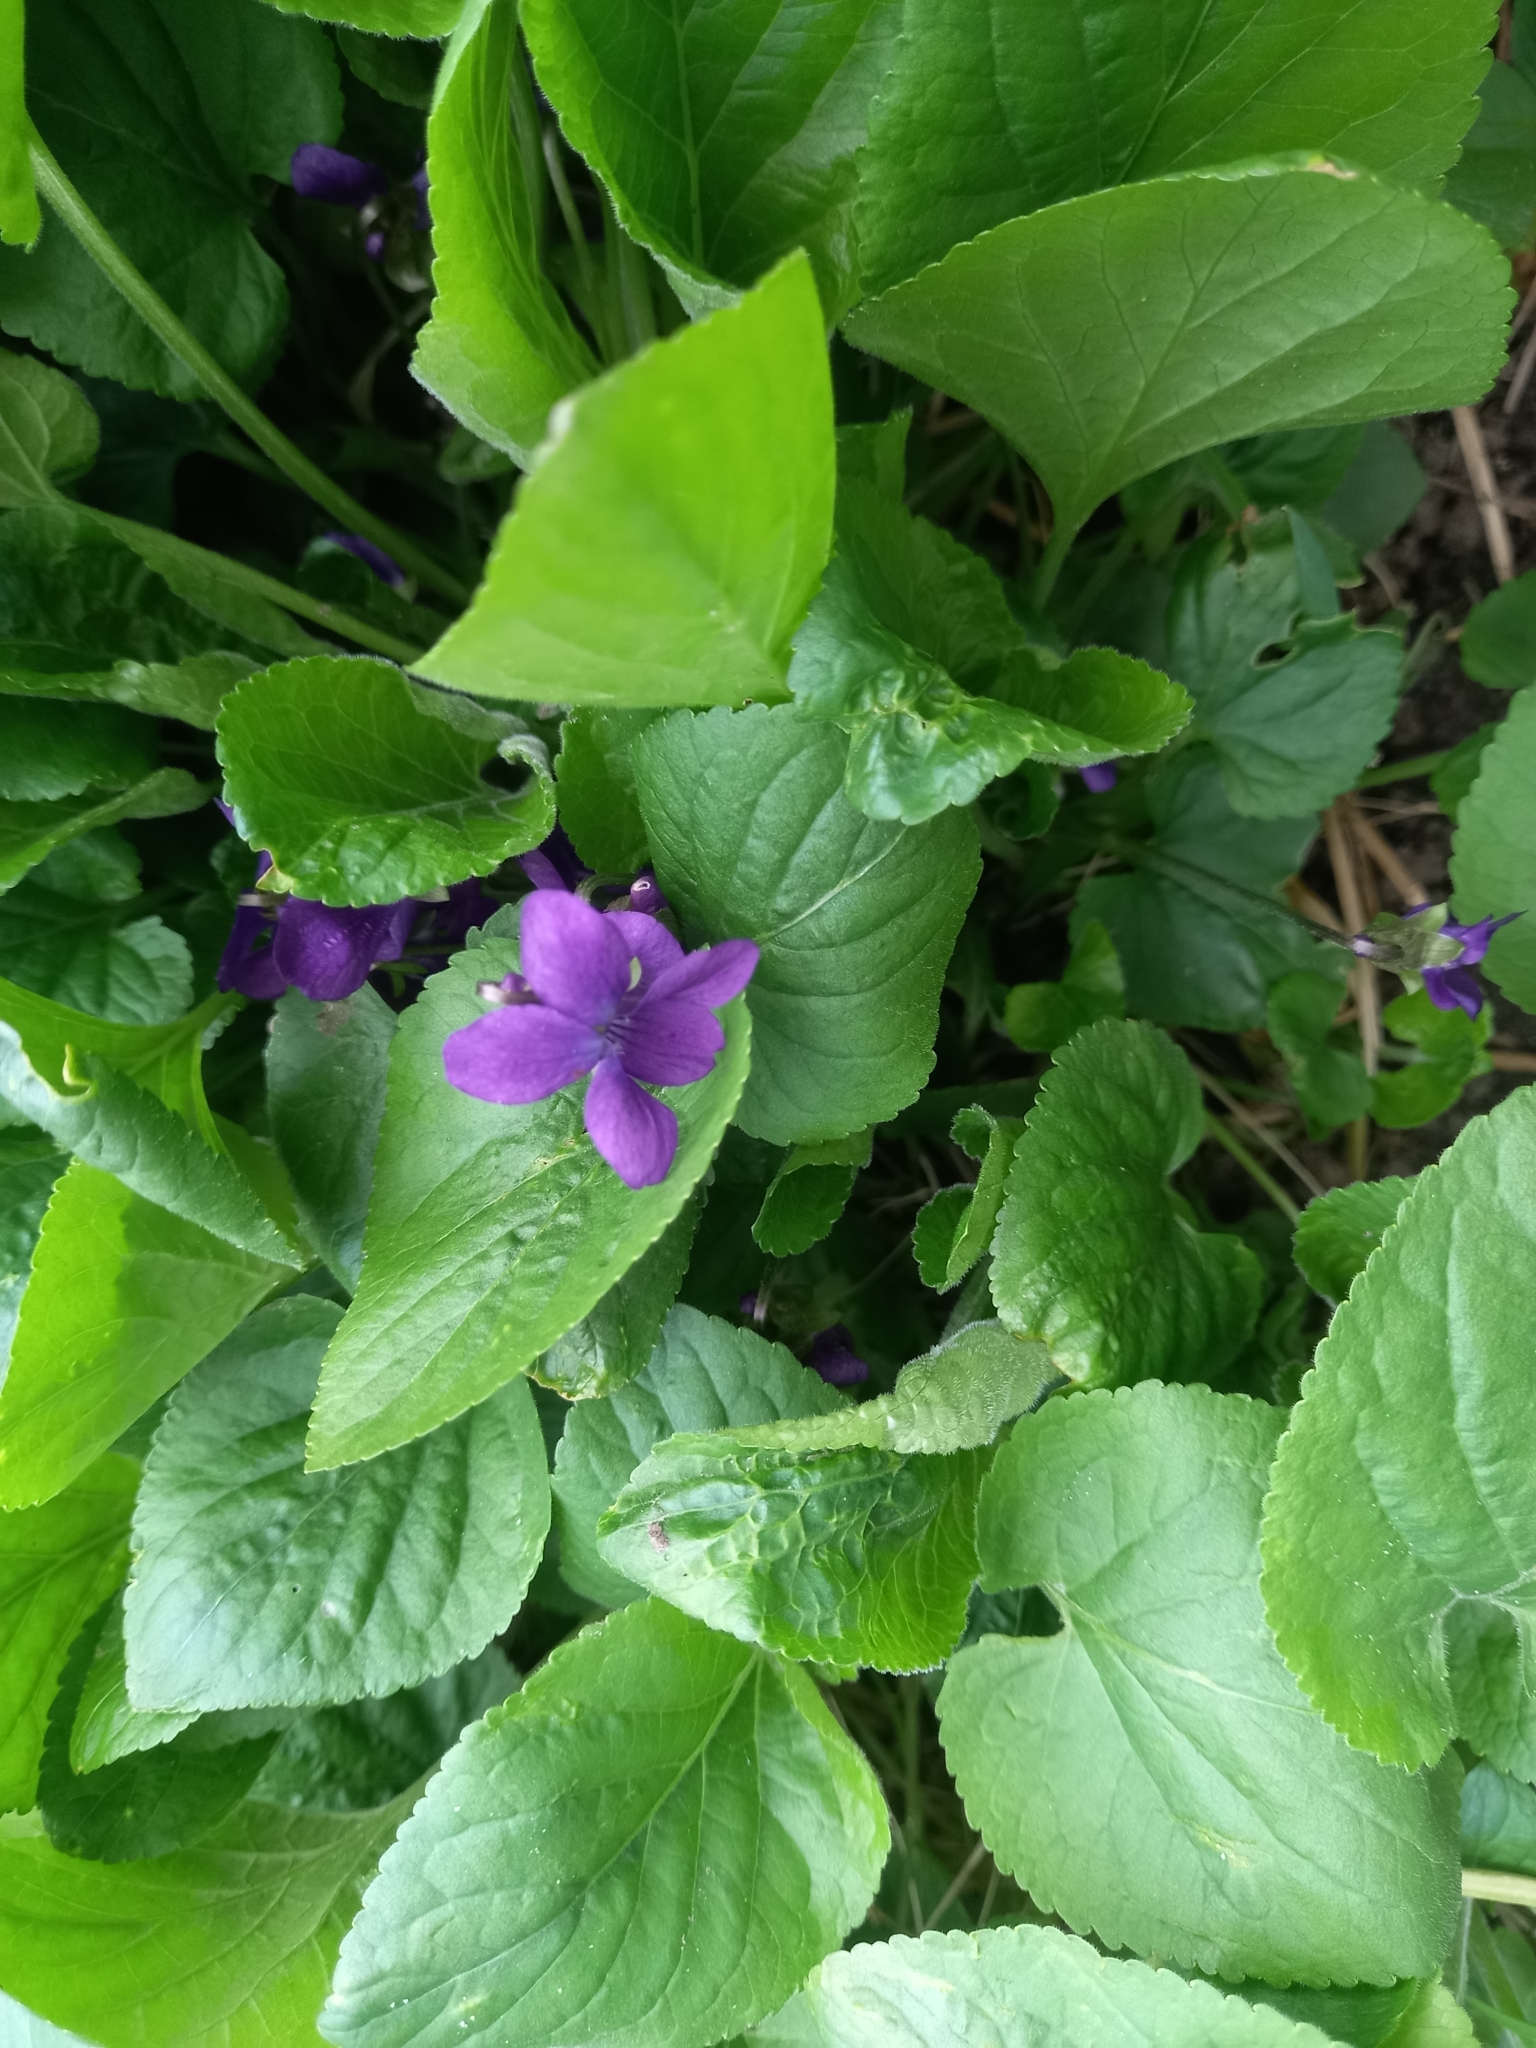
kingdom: Plantae
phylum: Tracheophyta
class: Magnoliopsida
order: Malpighiales
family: Violaceae
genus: Viola
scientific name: Viola odorata
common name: Sweet violet
